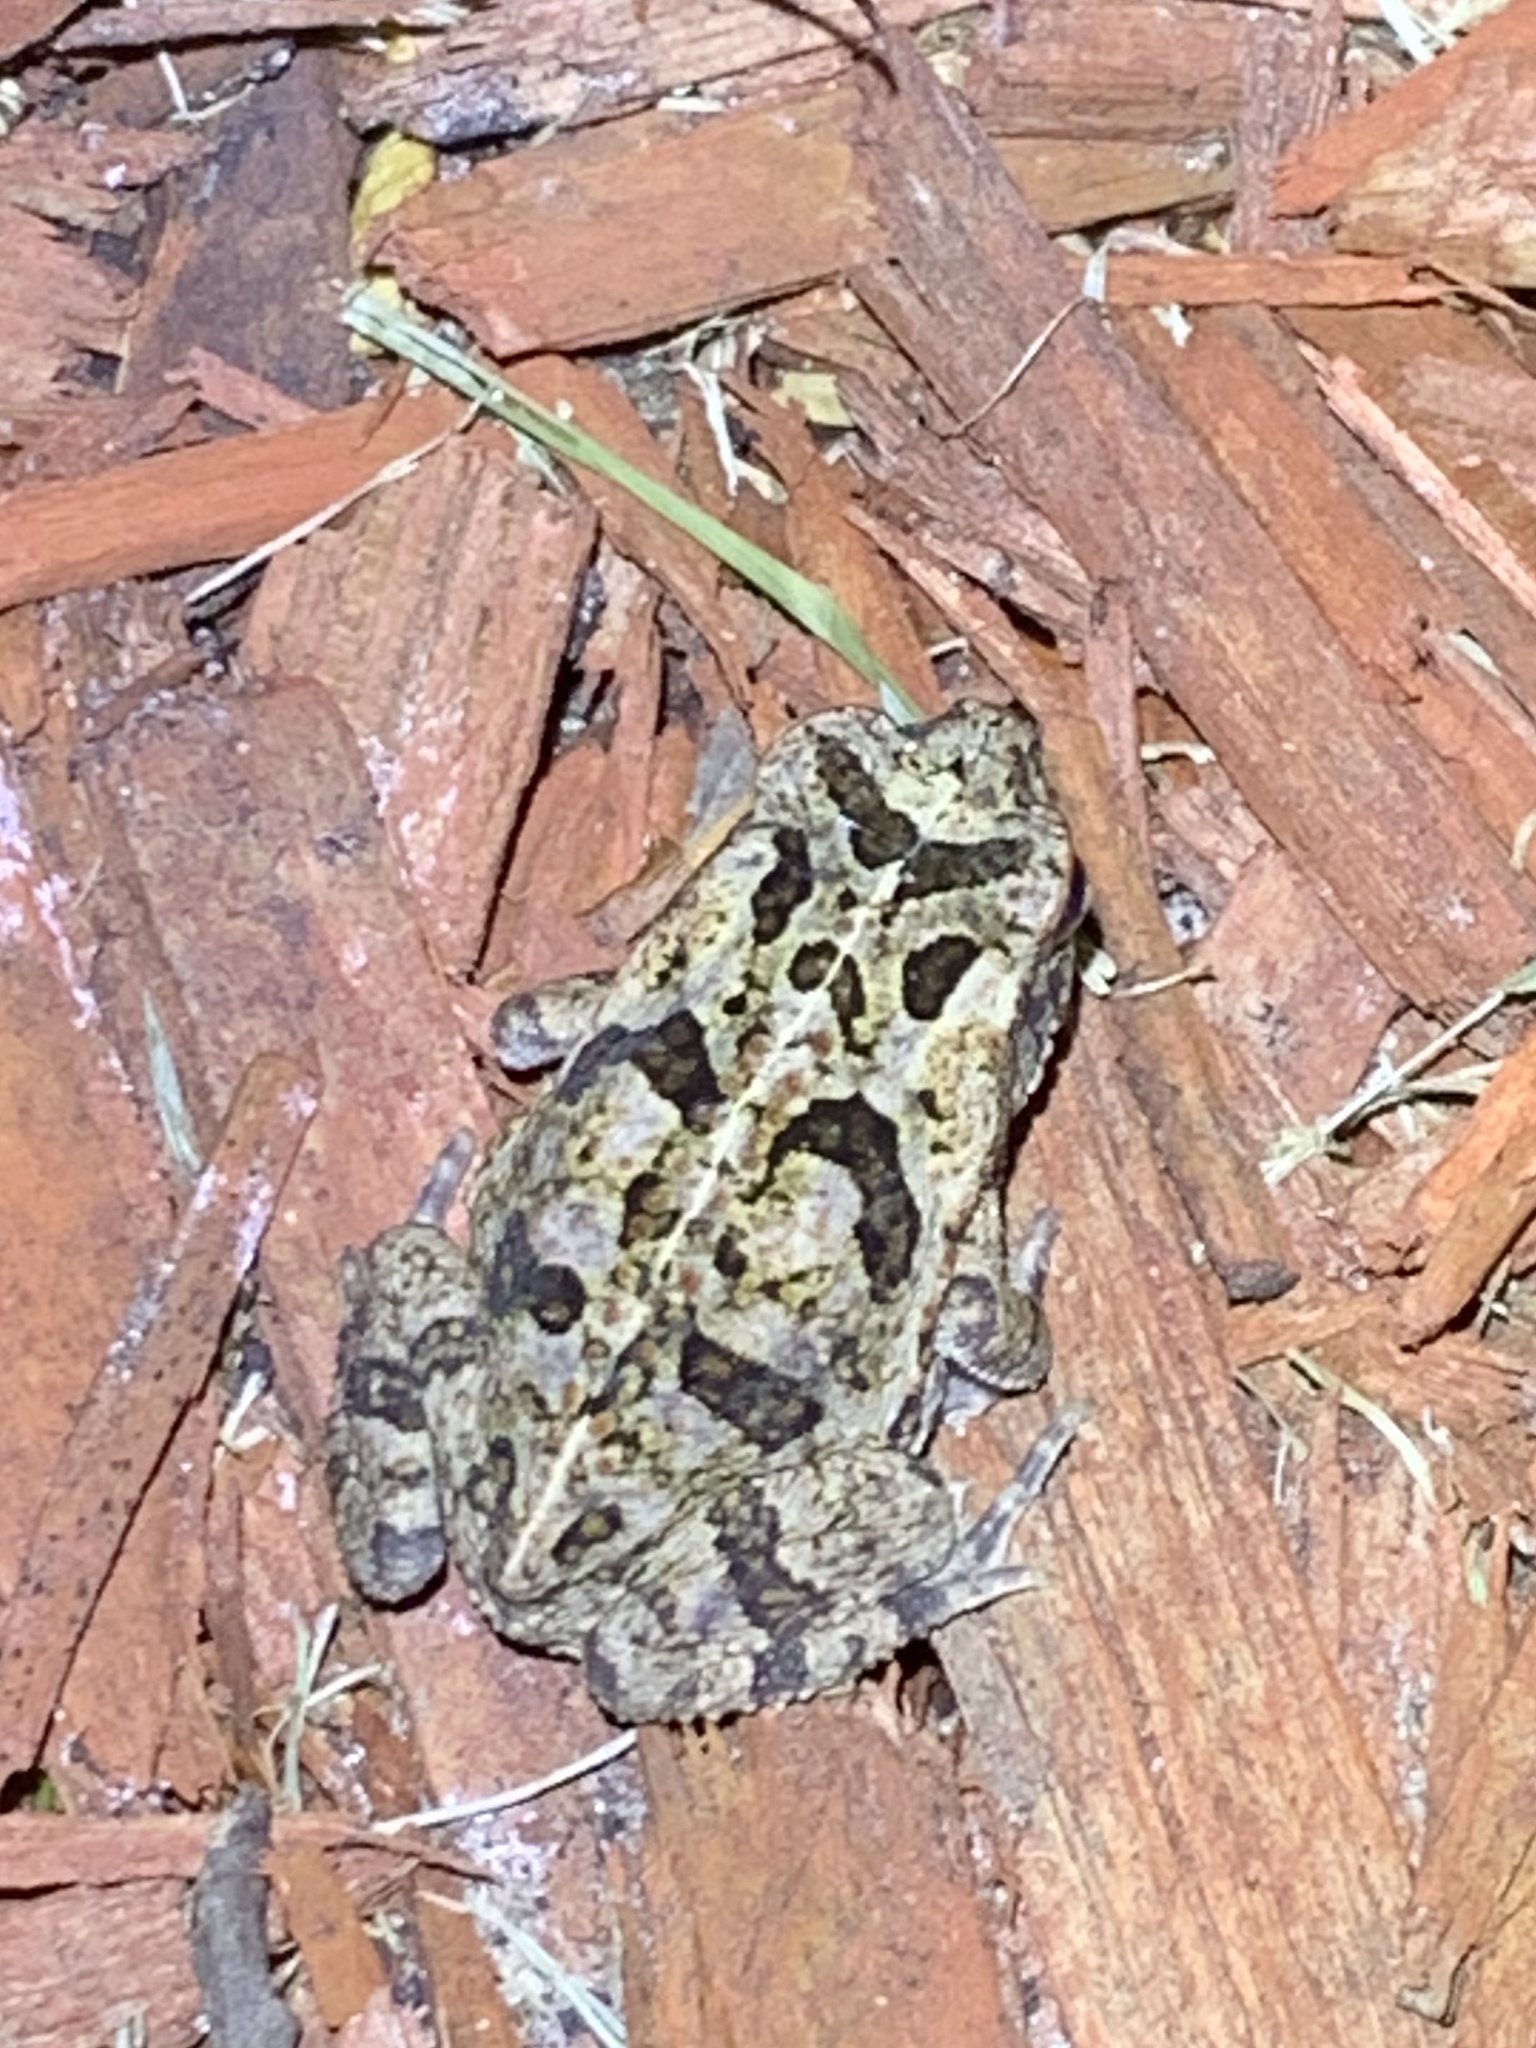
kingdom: Animalia
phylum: Chordata
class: Amphibia
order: Anura
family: Bufonidae
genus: Rhinella
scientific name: Rhinella marina
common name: Cane toad
